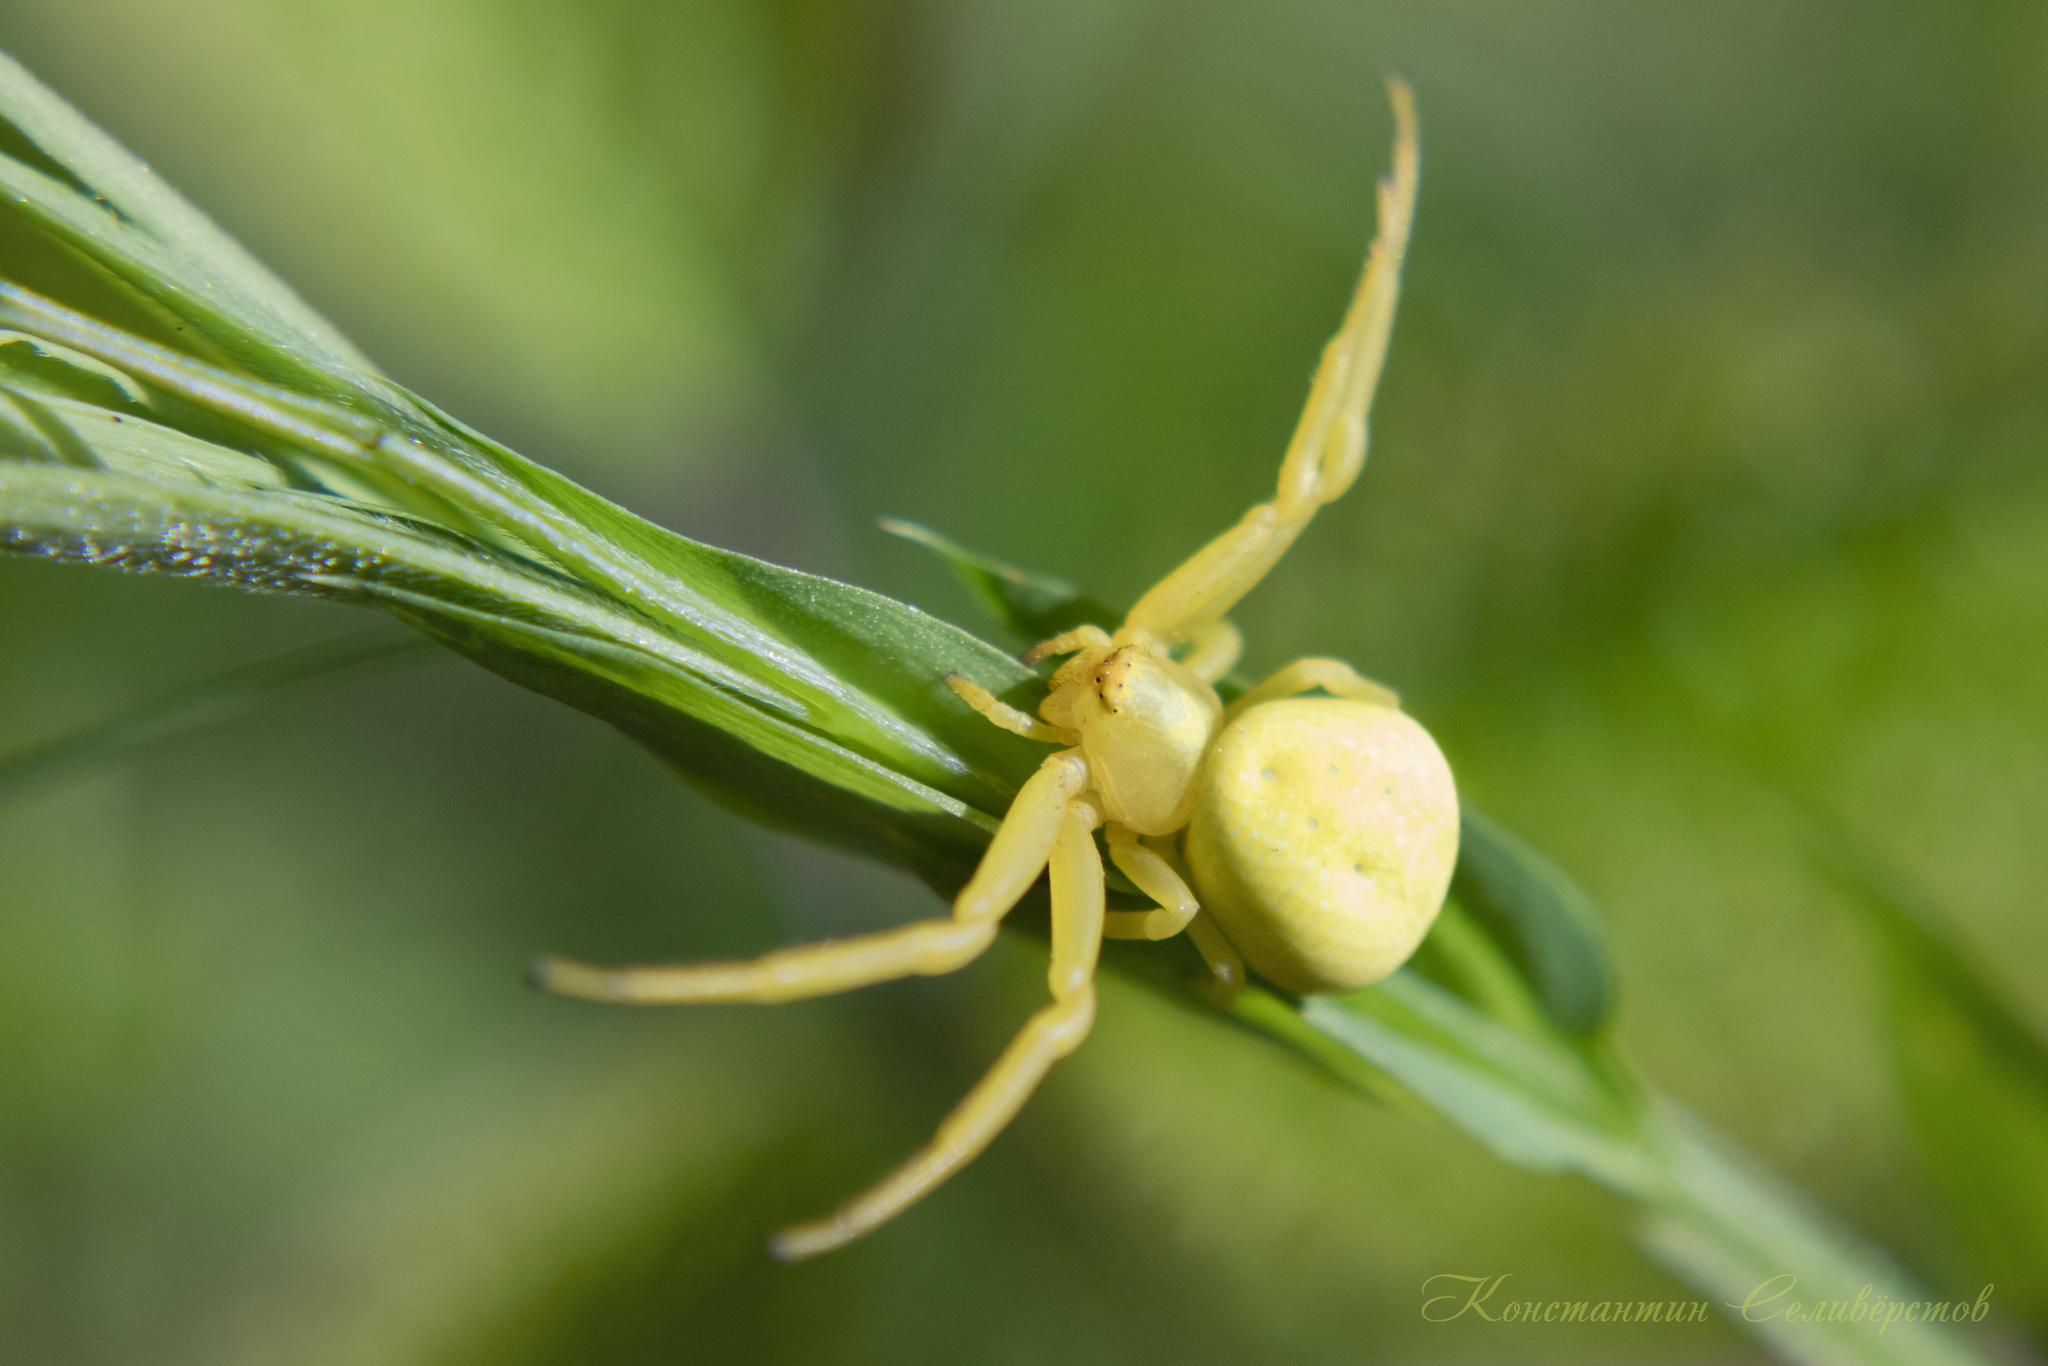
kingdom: Animalia
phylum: Arthropoda
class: Arachnida
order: Araneae
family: Thomisidae
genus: Misumena
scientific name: Misumena vatia
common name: Goldenrod crab spider
